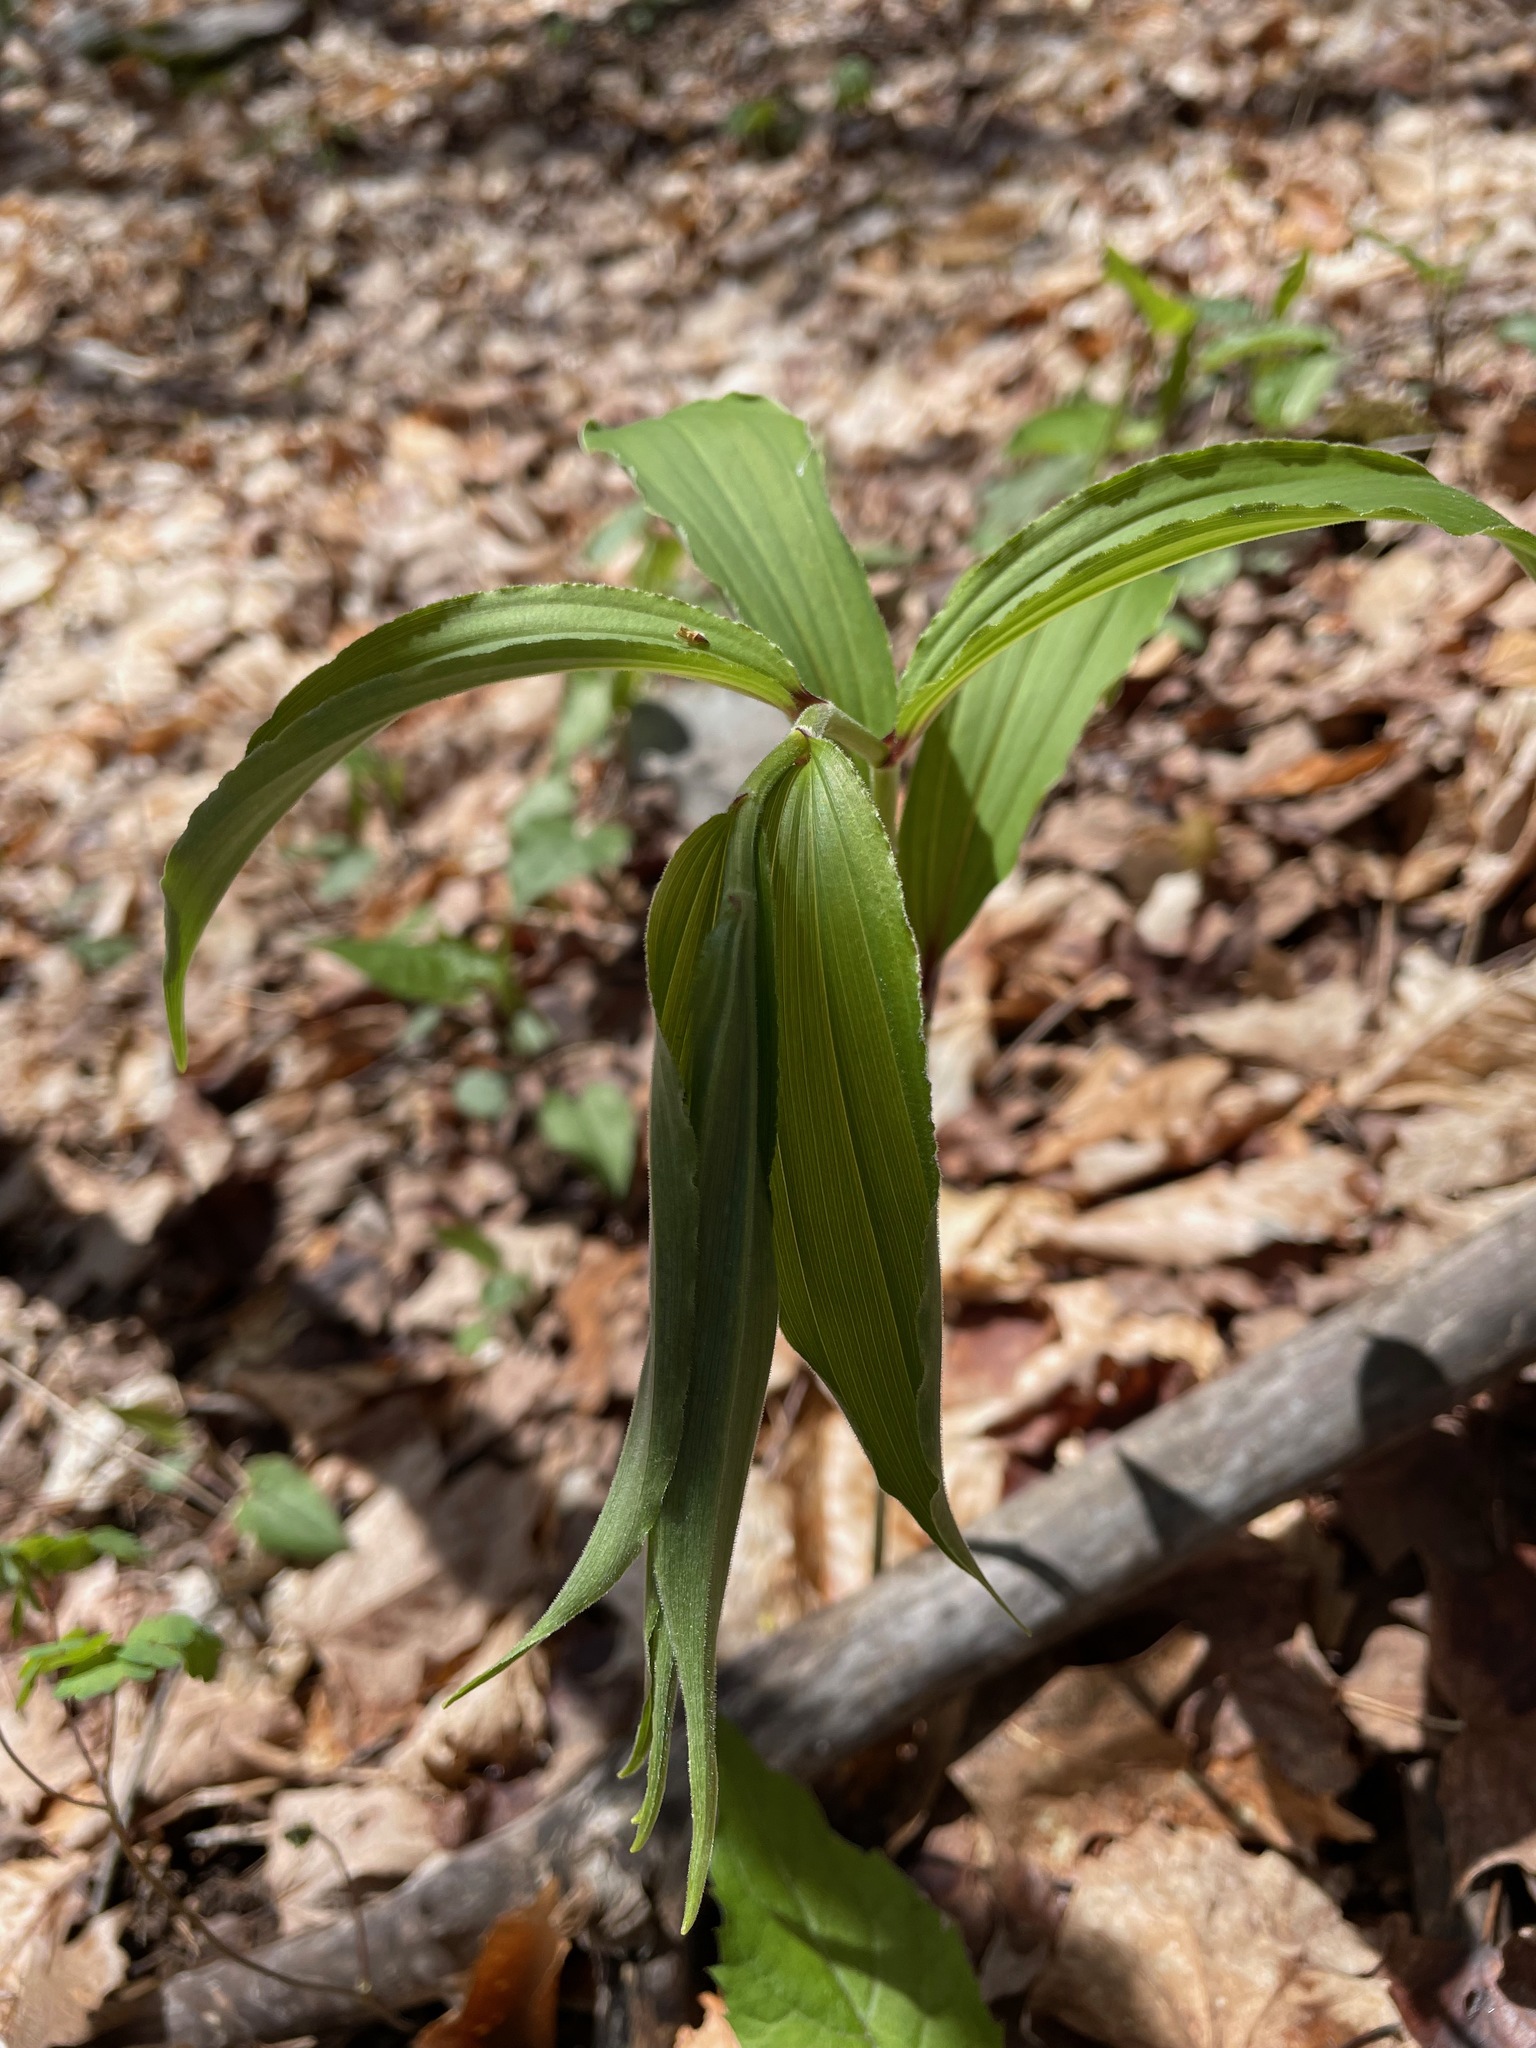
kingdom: Plantae
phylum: Tracheophyta
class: Liliopsida
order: Asparagales
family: Asparagaceae
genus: Maianthemum
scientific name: Maianthemum racemosum
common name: False spikenard
